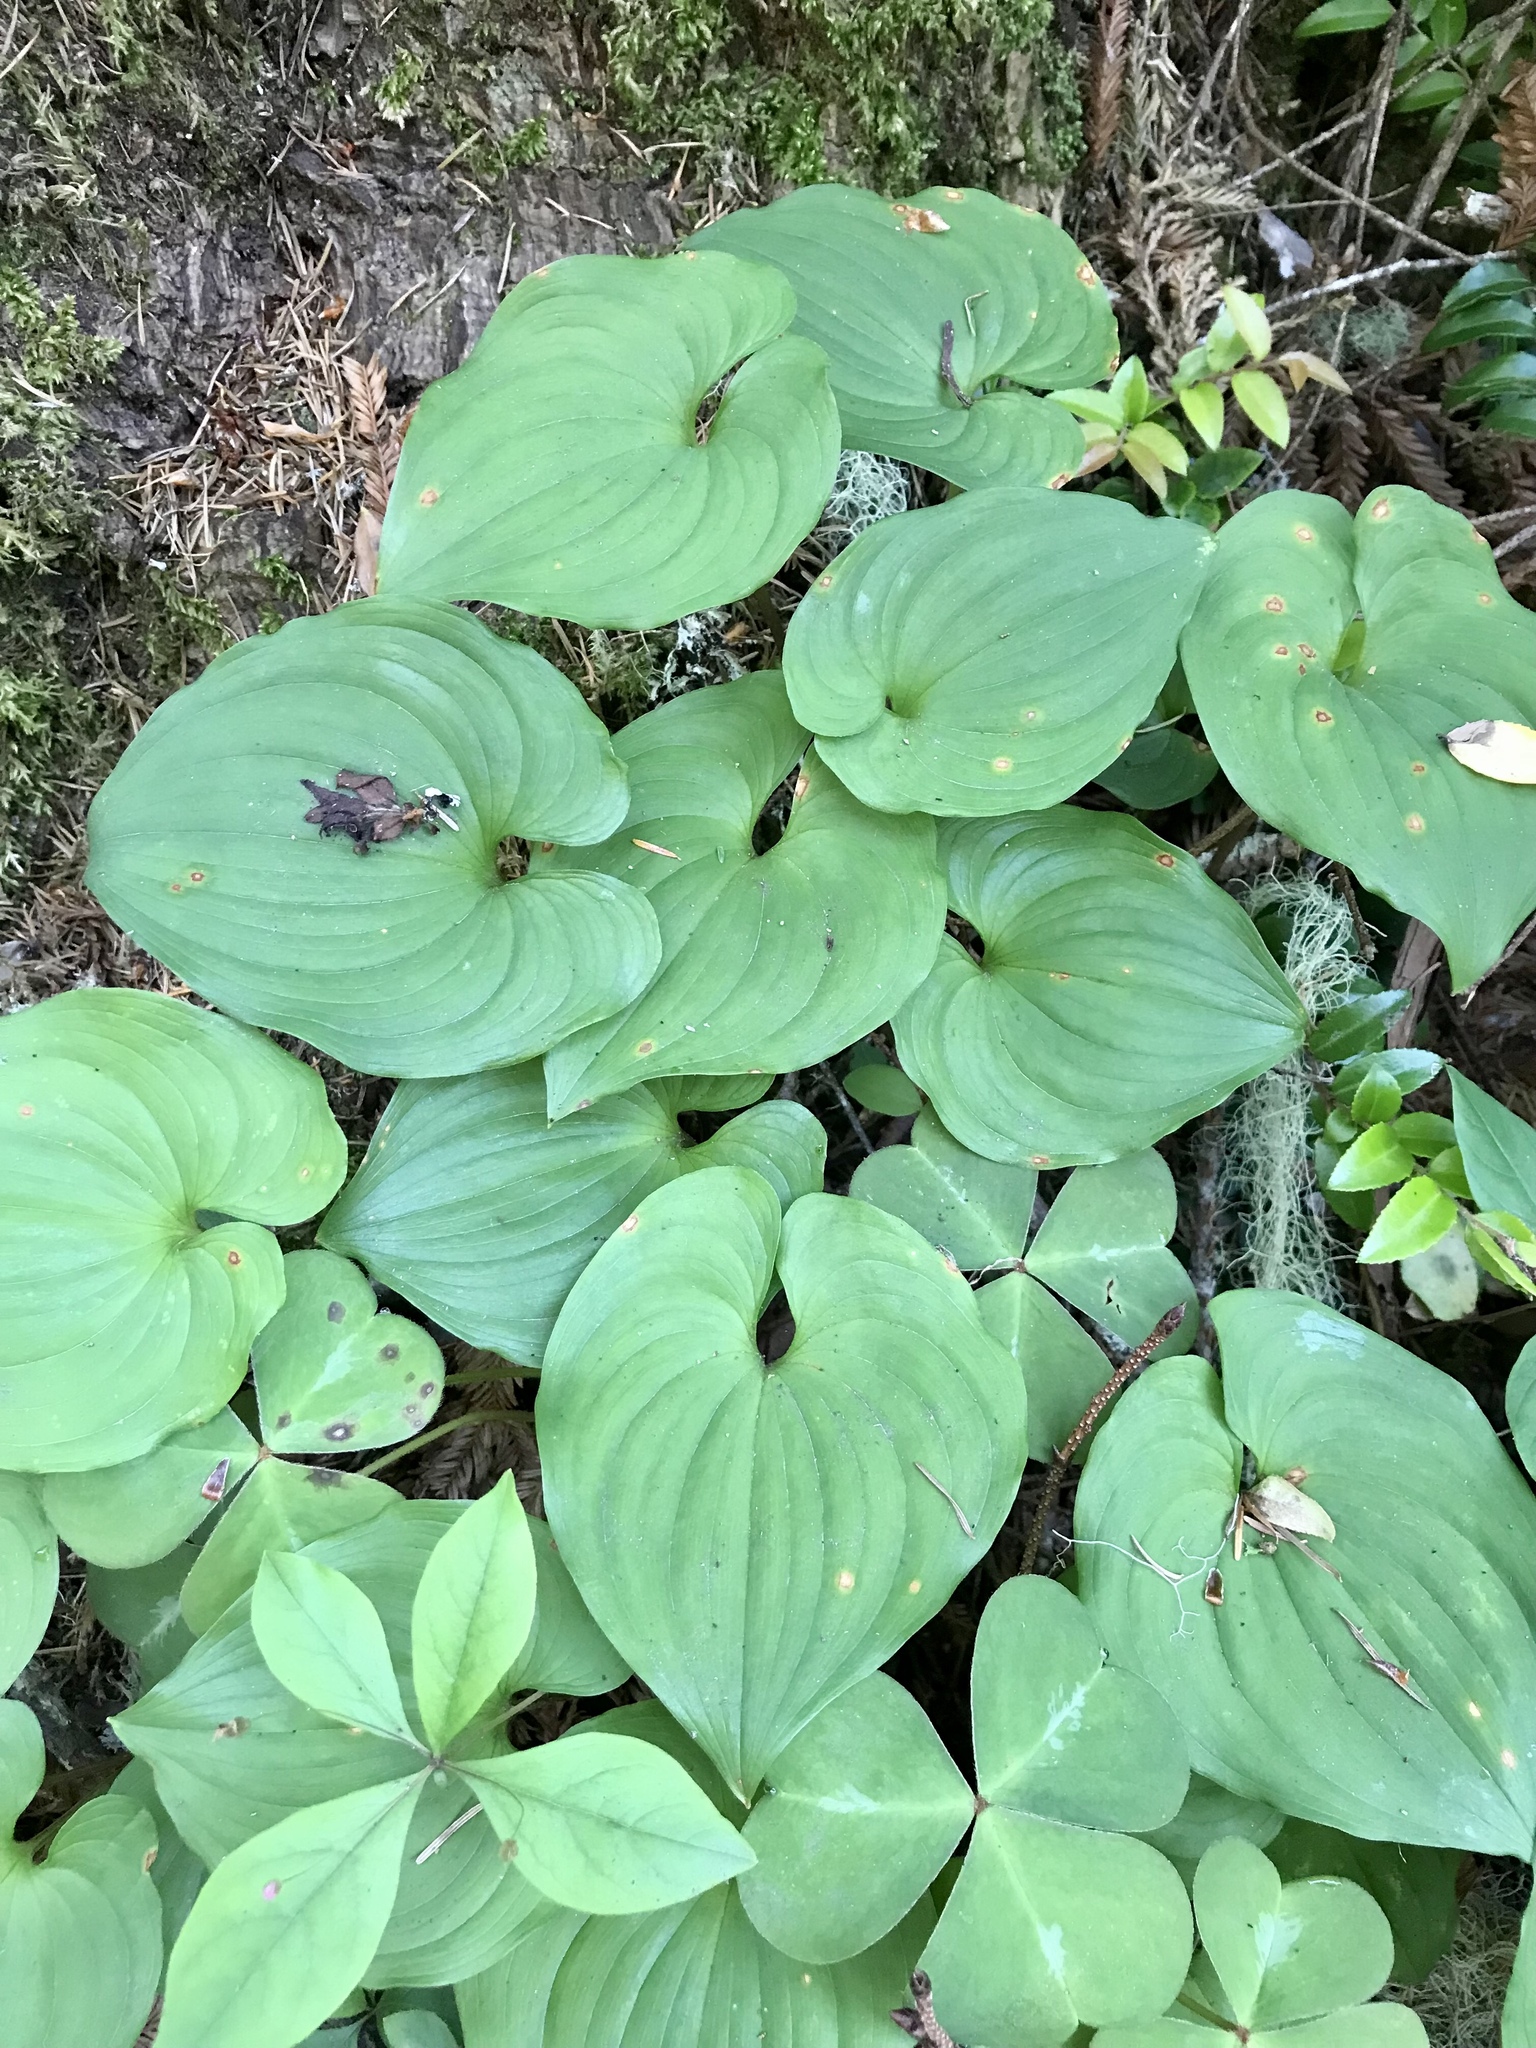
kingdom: Plantae
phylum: Tracheophyta
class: Liliopsida
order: Asparagales
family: Asparagaceae
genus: Maianthemum
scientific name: Maianthemum dilatatum
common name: False lily-of-the-valley
